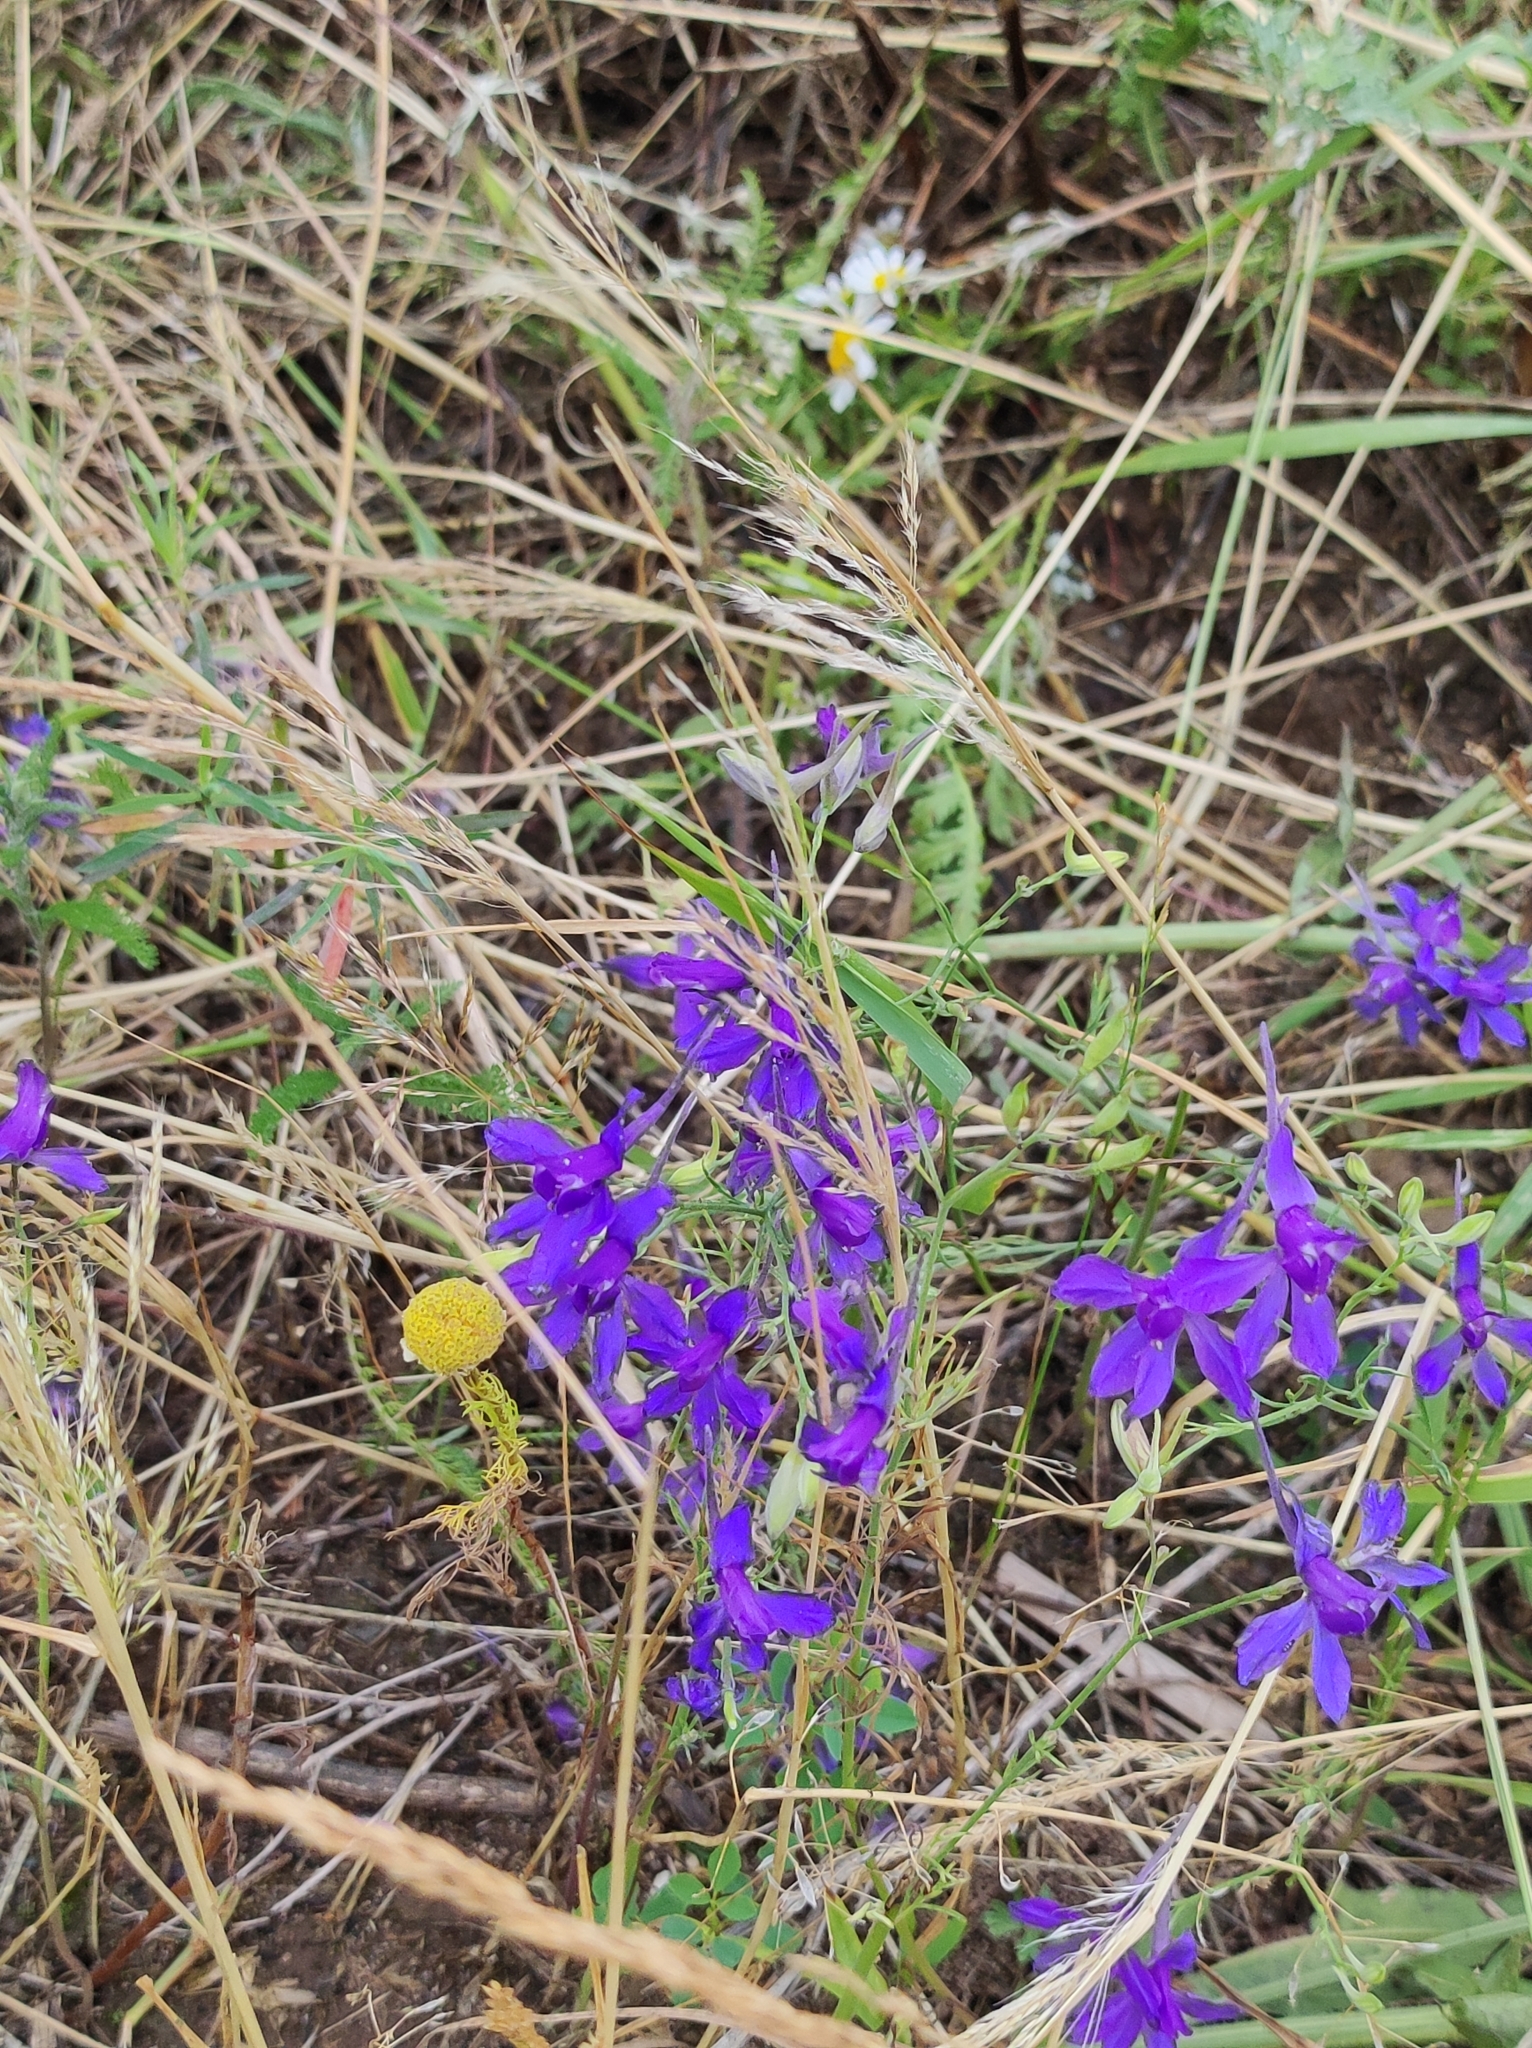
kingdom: Plantae
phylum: Tracheophyta
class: Magnoliopsida
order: Ranunculales
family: Ranunculaceae
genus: Delphinium
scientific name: Delphinium consolida
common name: Branching larkspur
